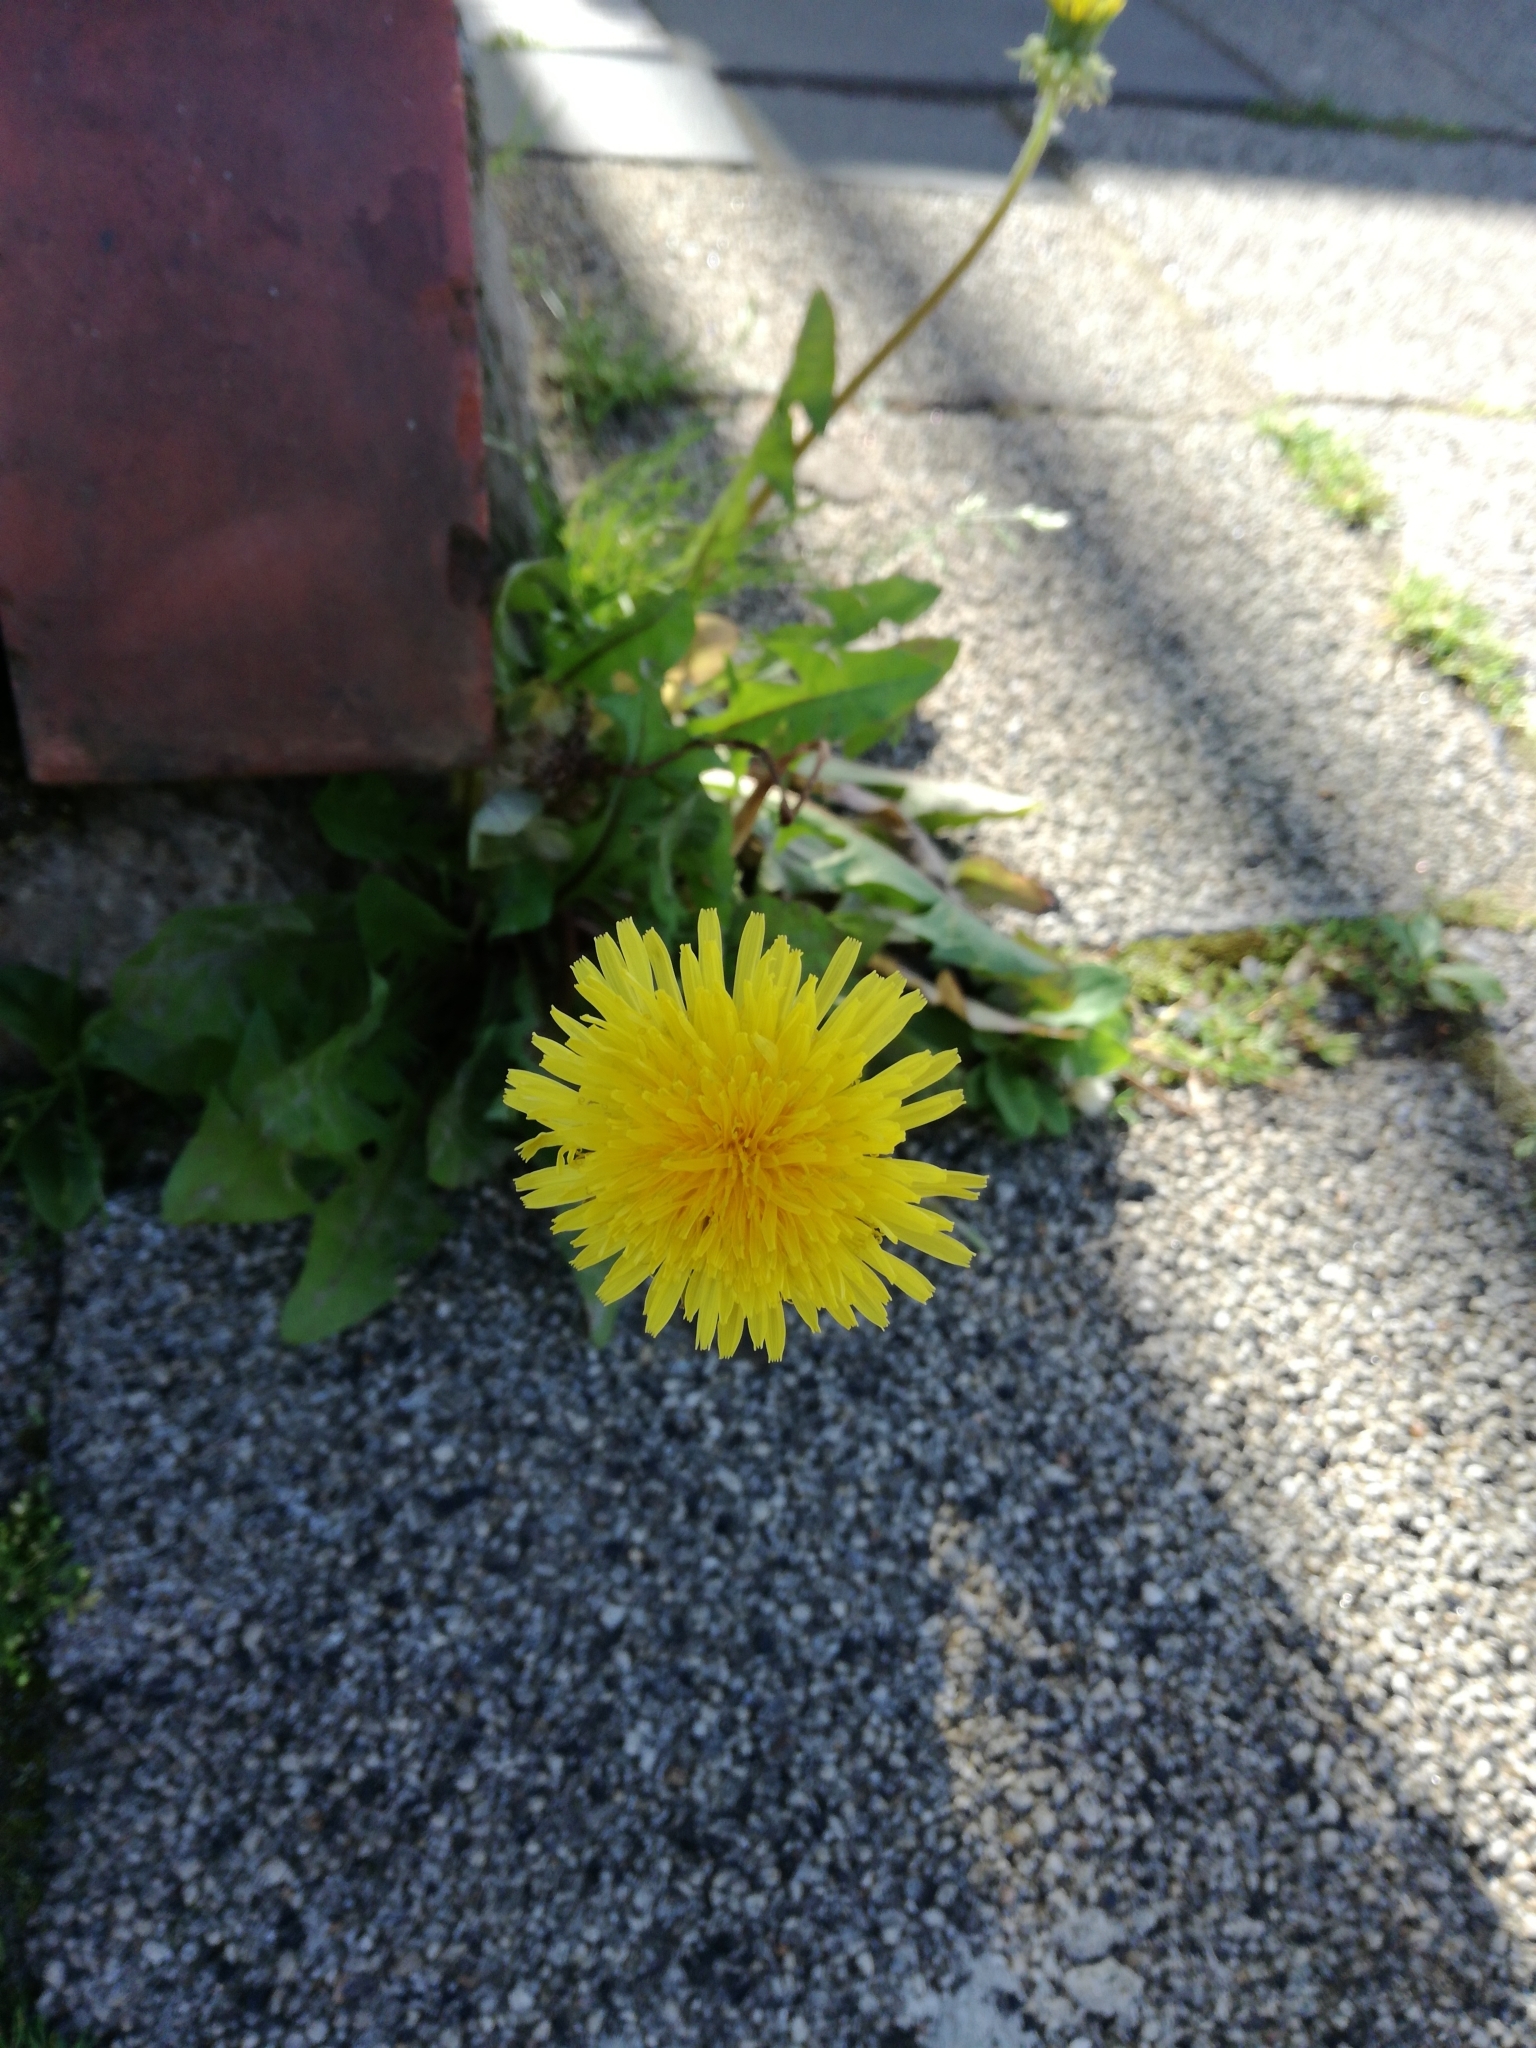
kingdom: Plantae
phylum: Tracheophyta
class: Magnoliopsida
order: Asterales
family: Asteraceae
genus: Taraxacum
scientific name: Taraxacum officinale
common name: Common dandelion
